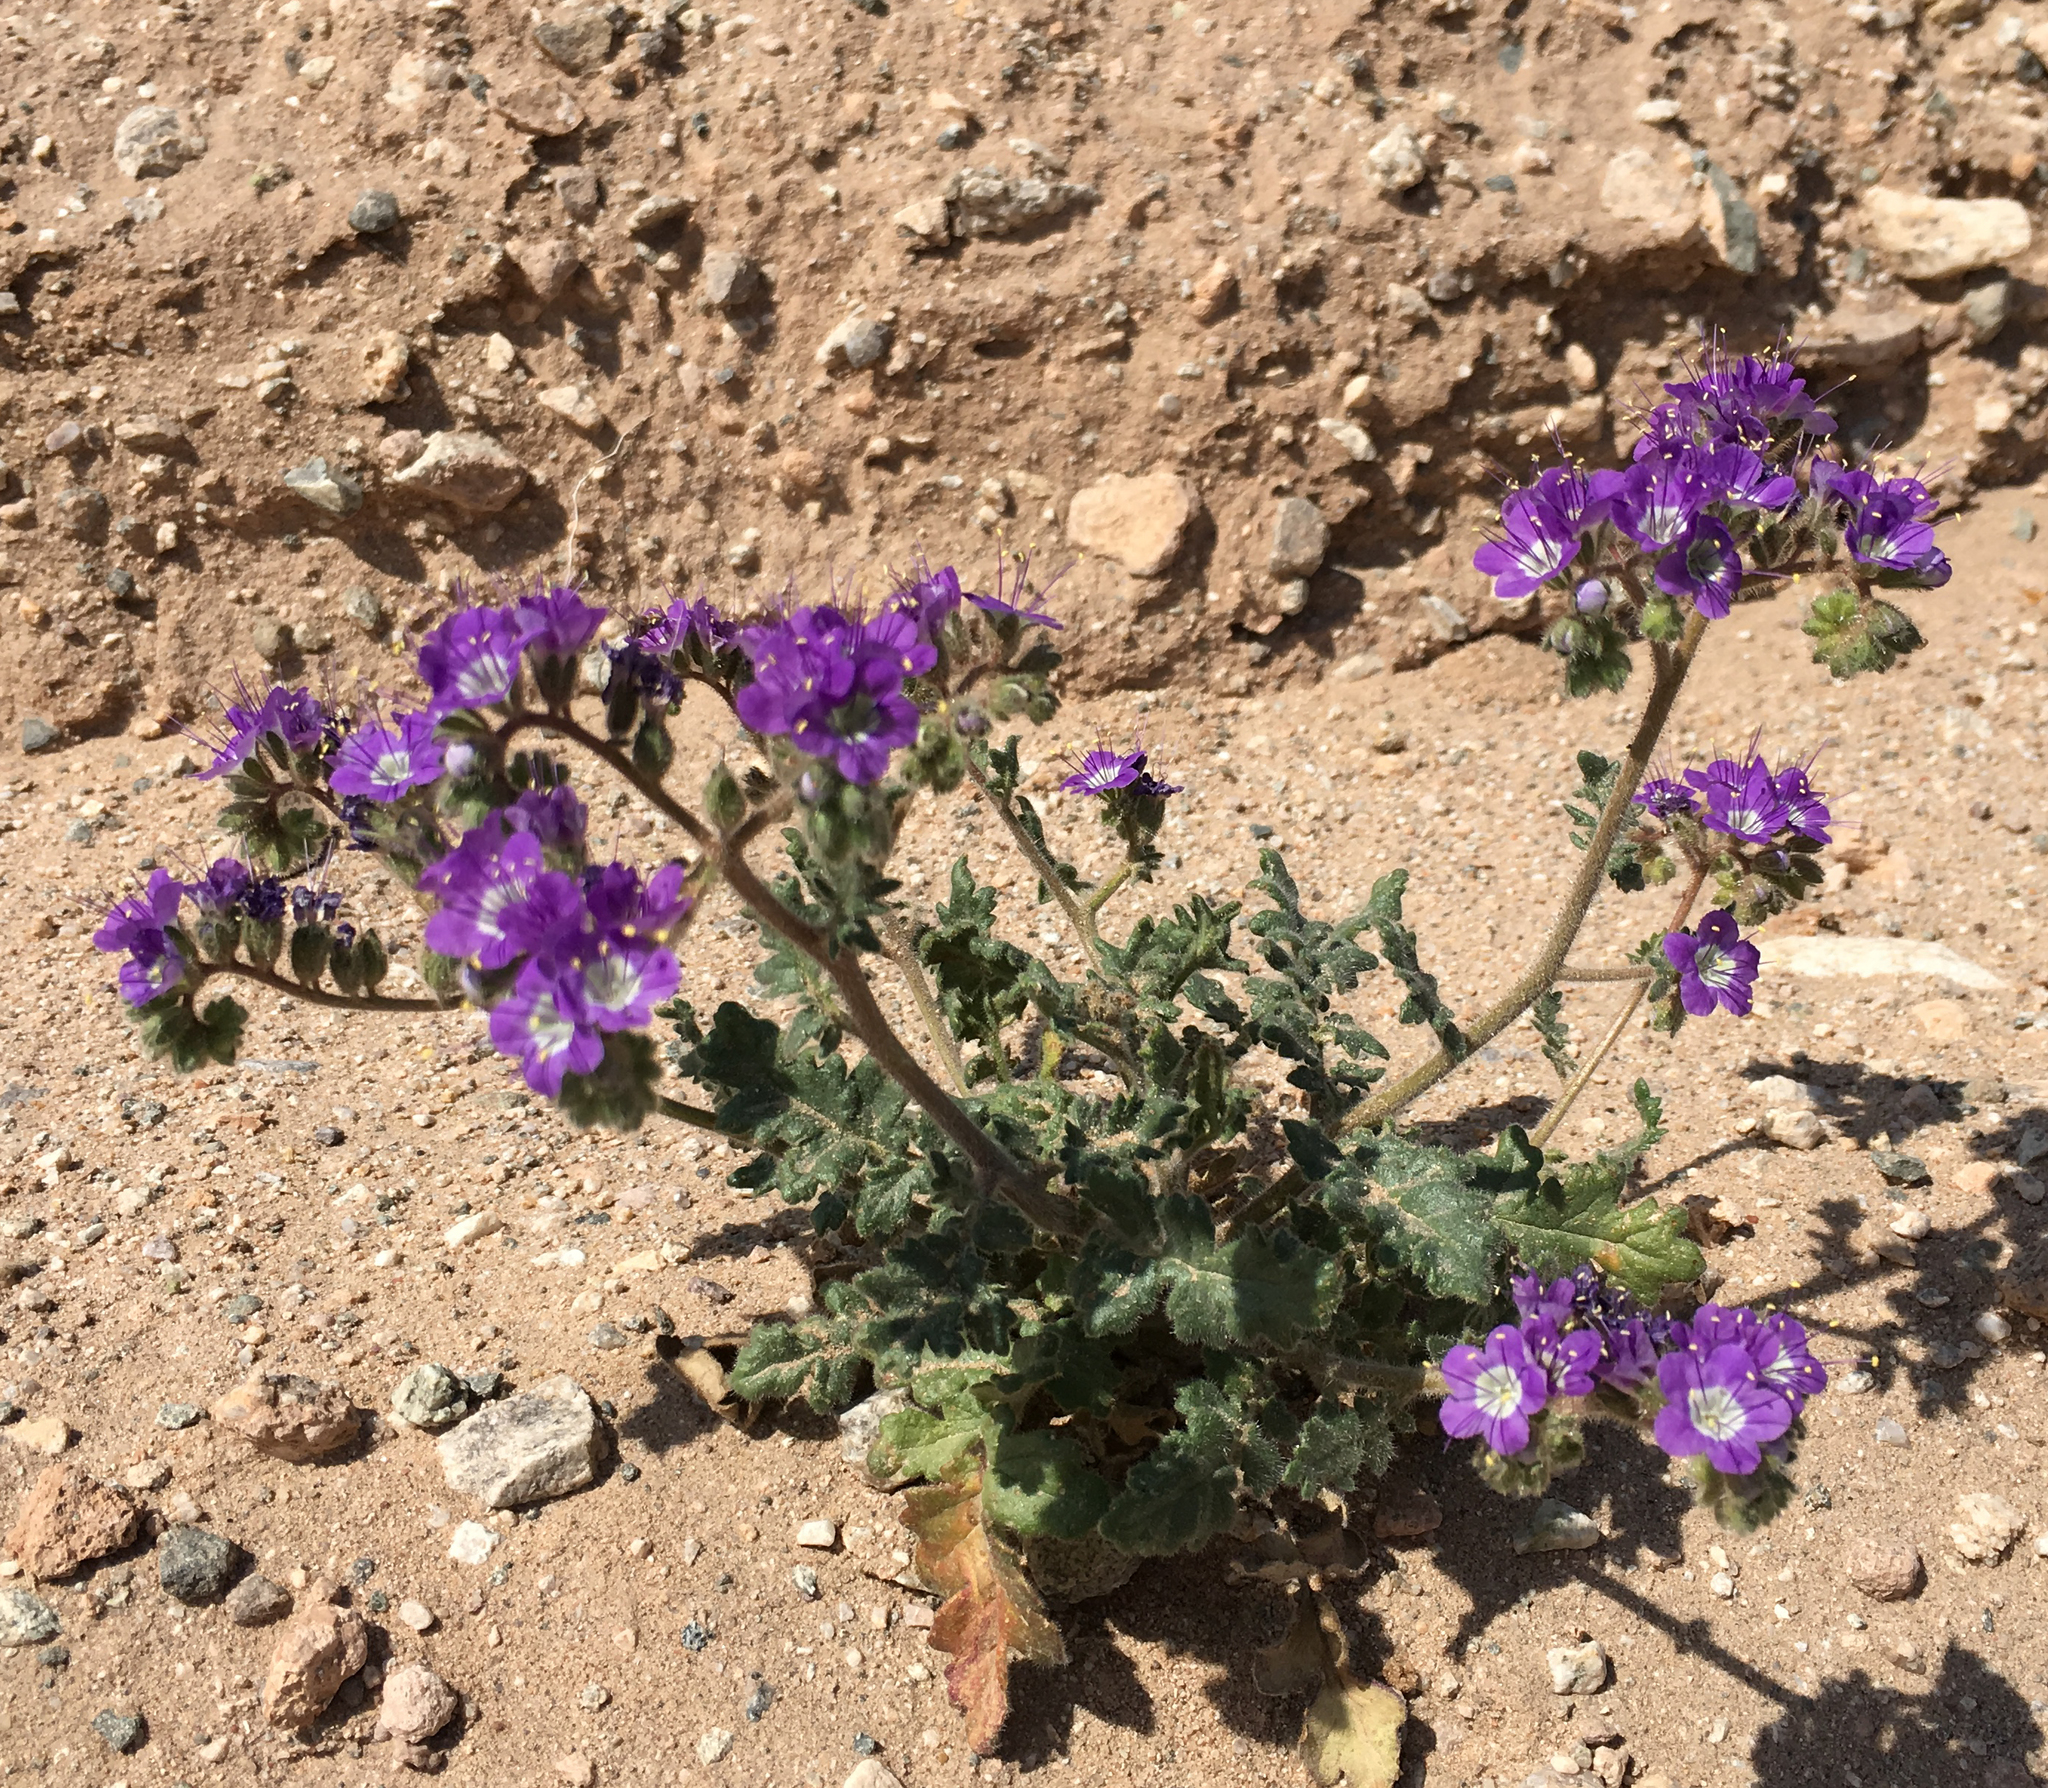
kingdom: Plantae
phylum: Tracheophyta
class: Magnoliopsida
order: Boraginales
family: Hydrophyllaceae
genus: Phacelia
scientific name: Phacelia crenulata
